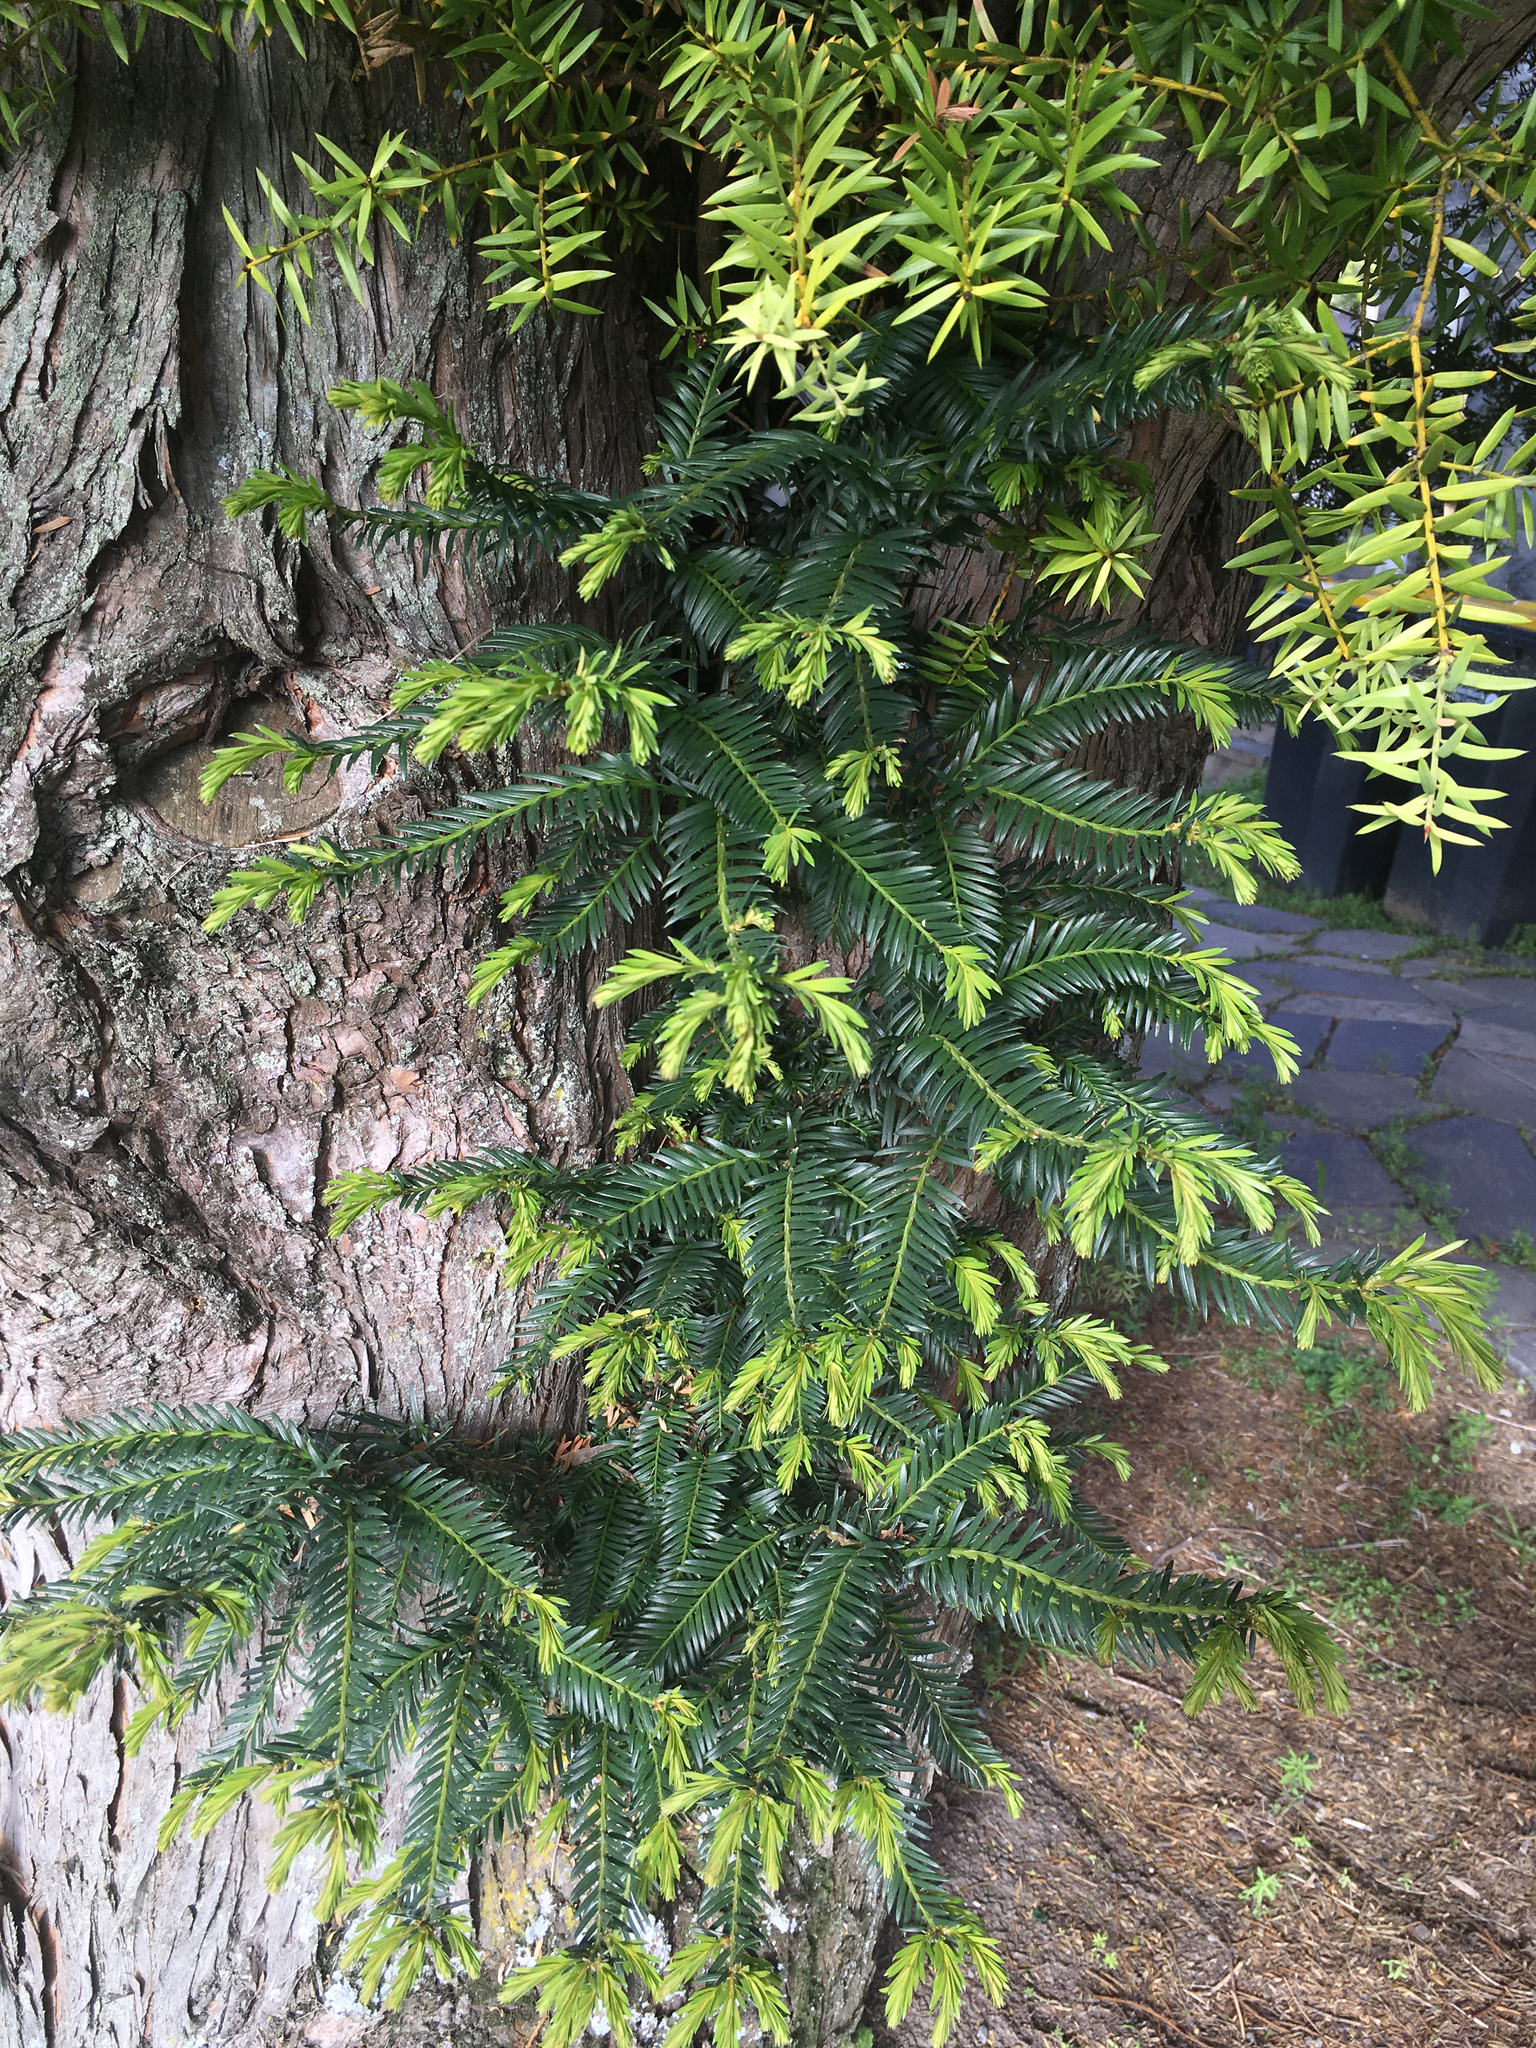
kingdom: Plantae
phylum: Tracheophyta
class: Pinopsida
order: Pinales
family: Taxaceae
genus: Taxus
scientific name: Taxus baccata
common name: Yew
